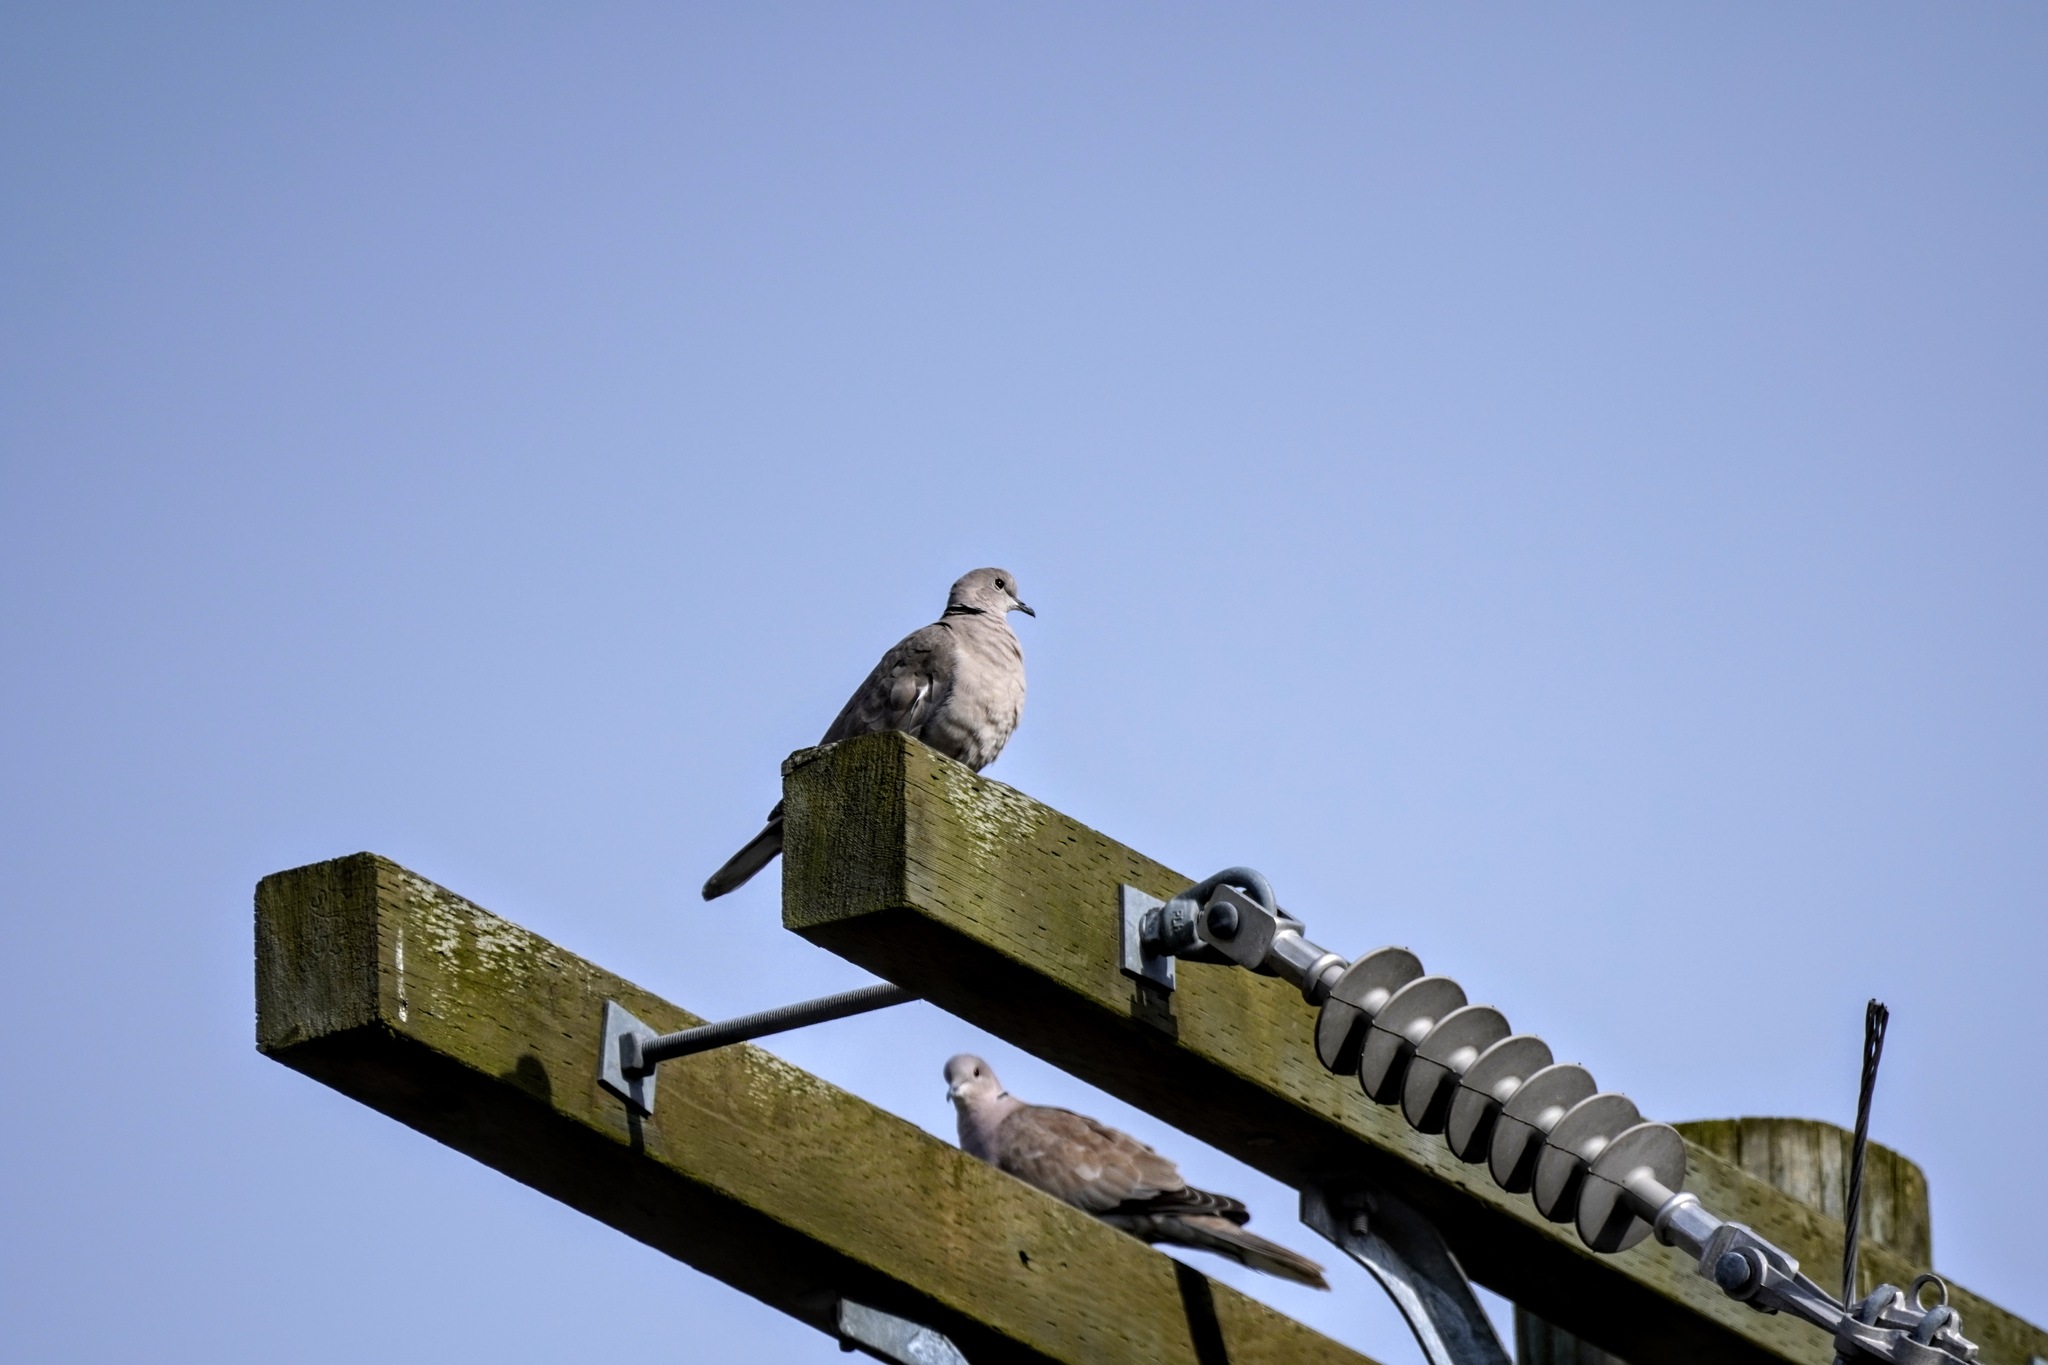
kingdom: Animalia
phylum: Chordata
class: Aves
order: Columbiformes
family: Columbidae
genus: Streptopelia
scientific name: Streptopelia decaocto
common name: Eurasian collared dove
